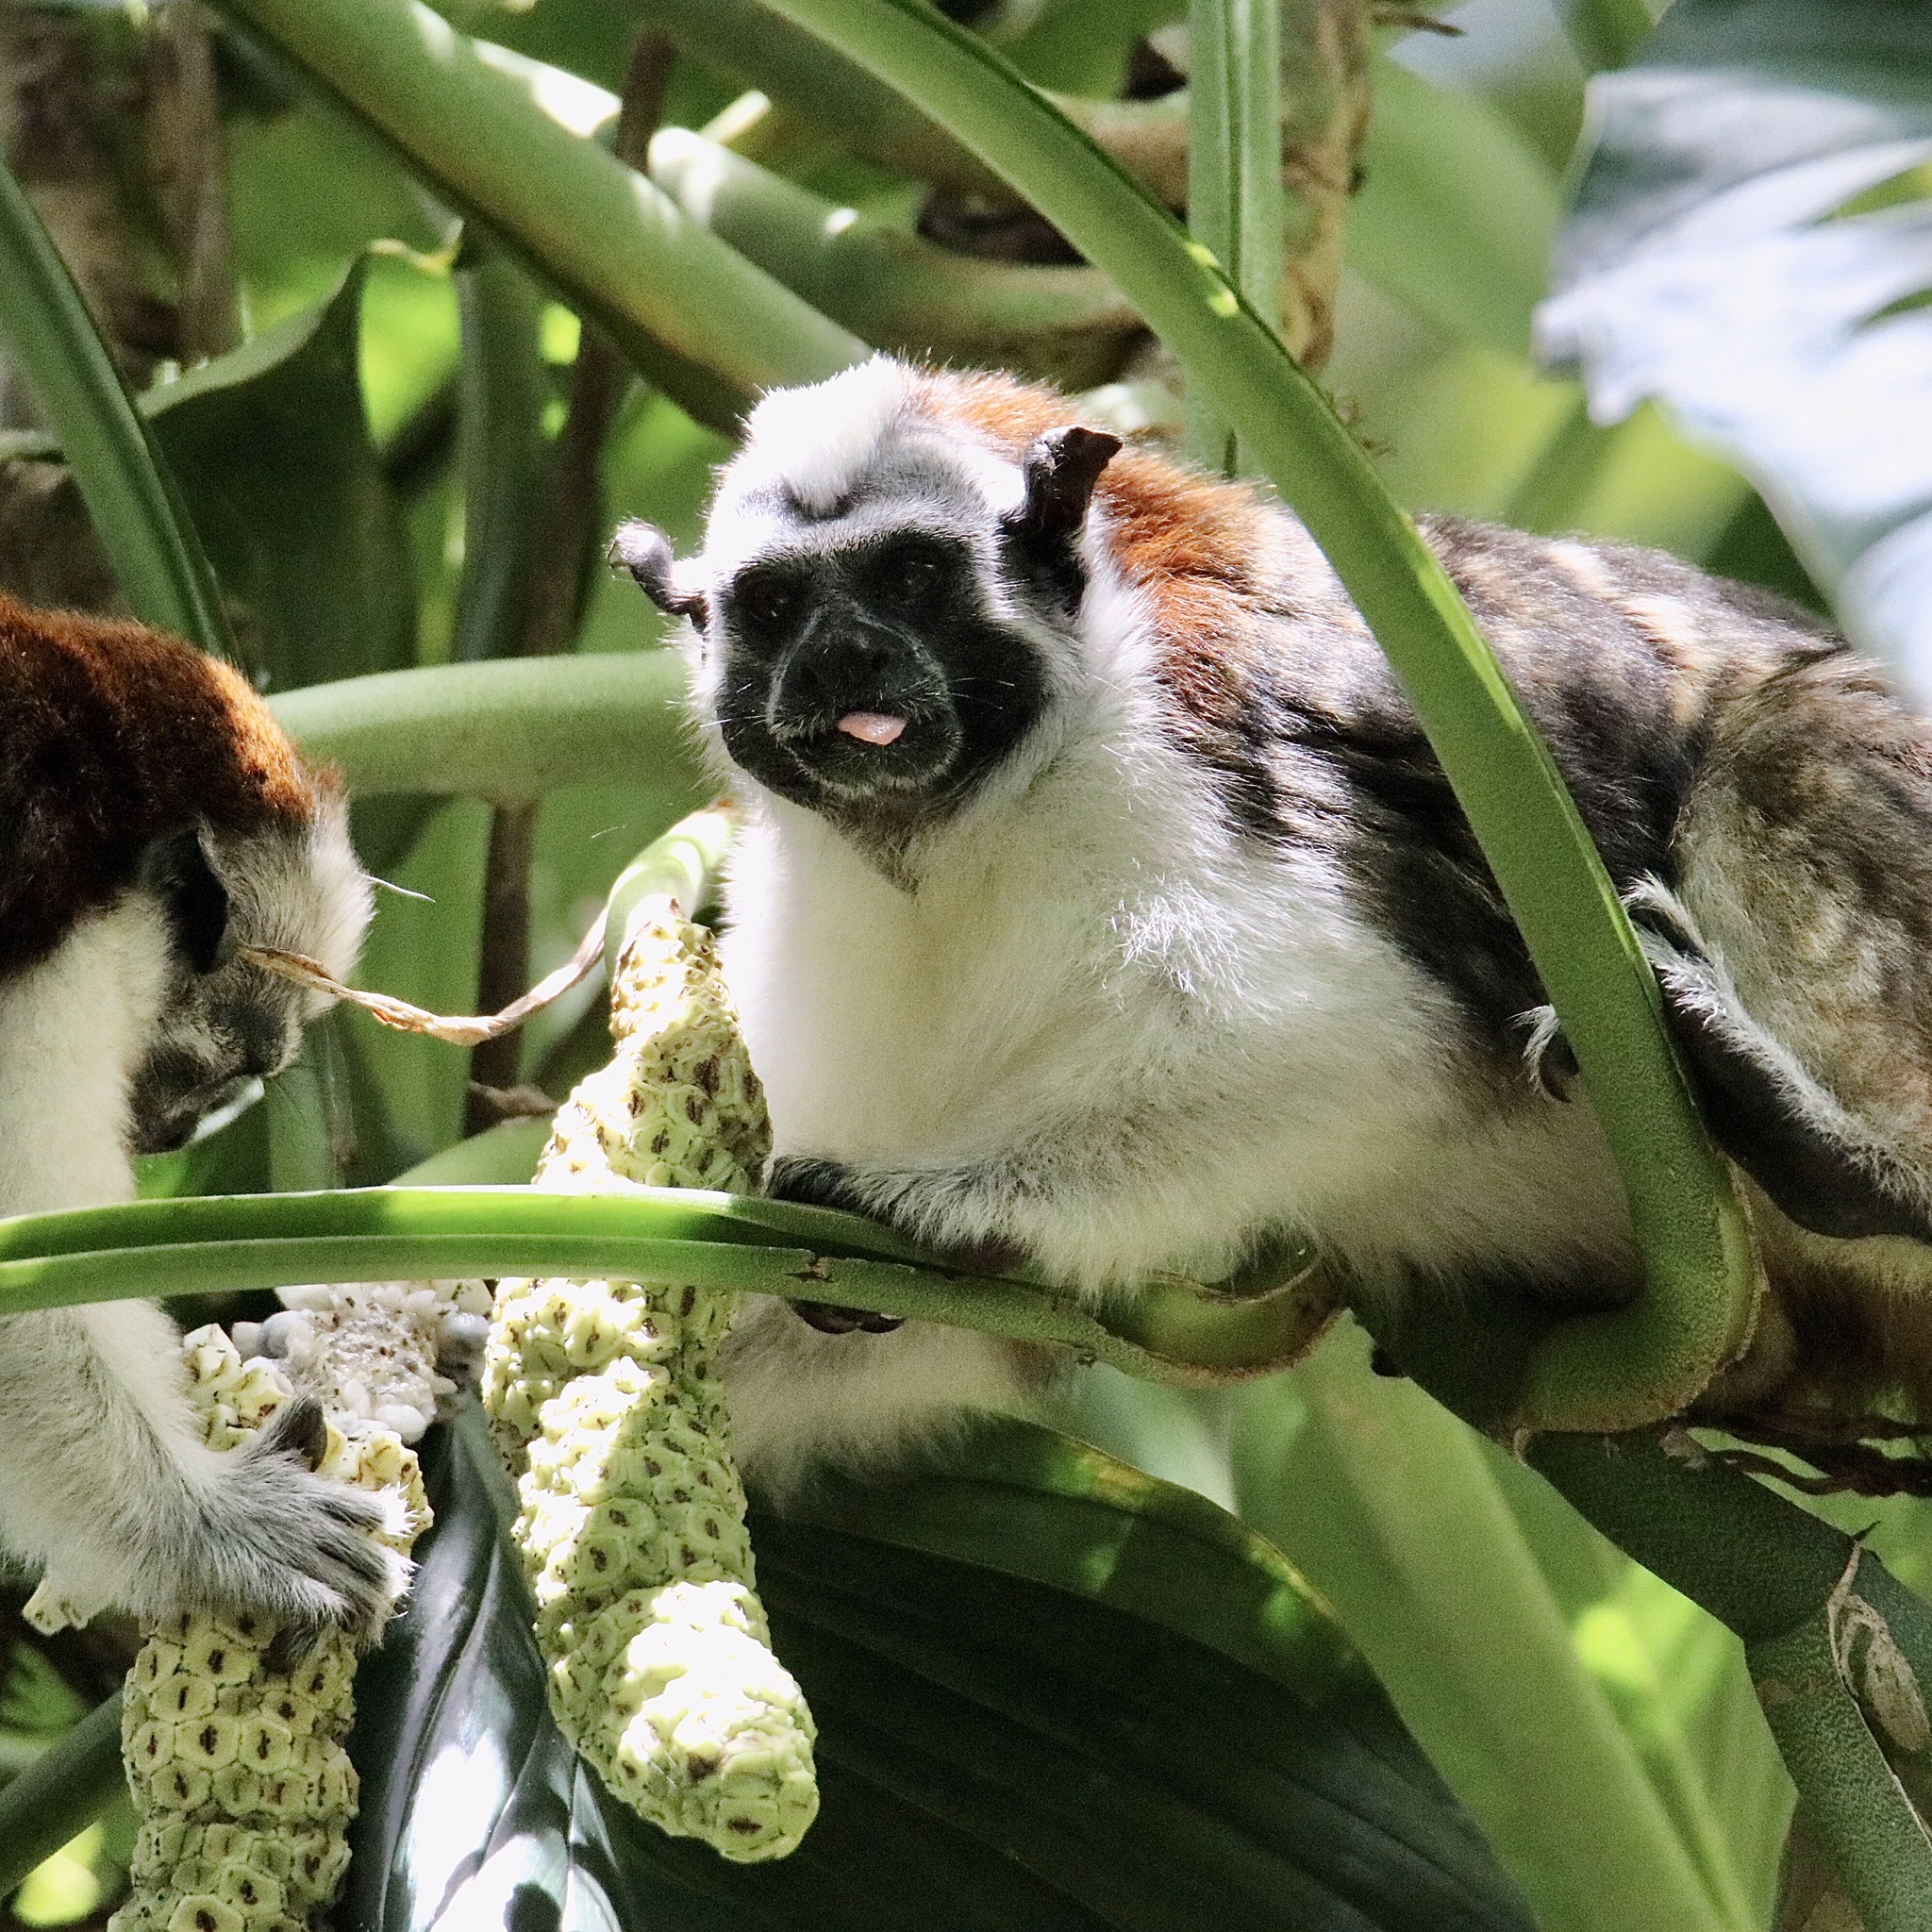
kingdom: Animalia
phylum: Chordata
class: Mammalia
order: Primates
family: Callitrichidae
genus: Saguinus
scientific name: Saguinus geoffroyi
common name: Geoffroy s tamarin
